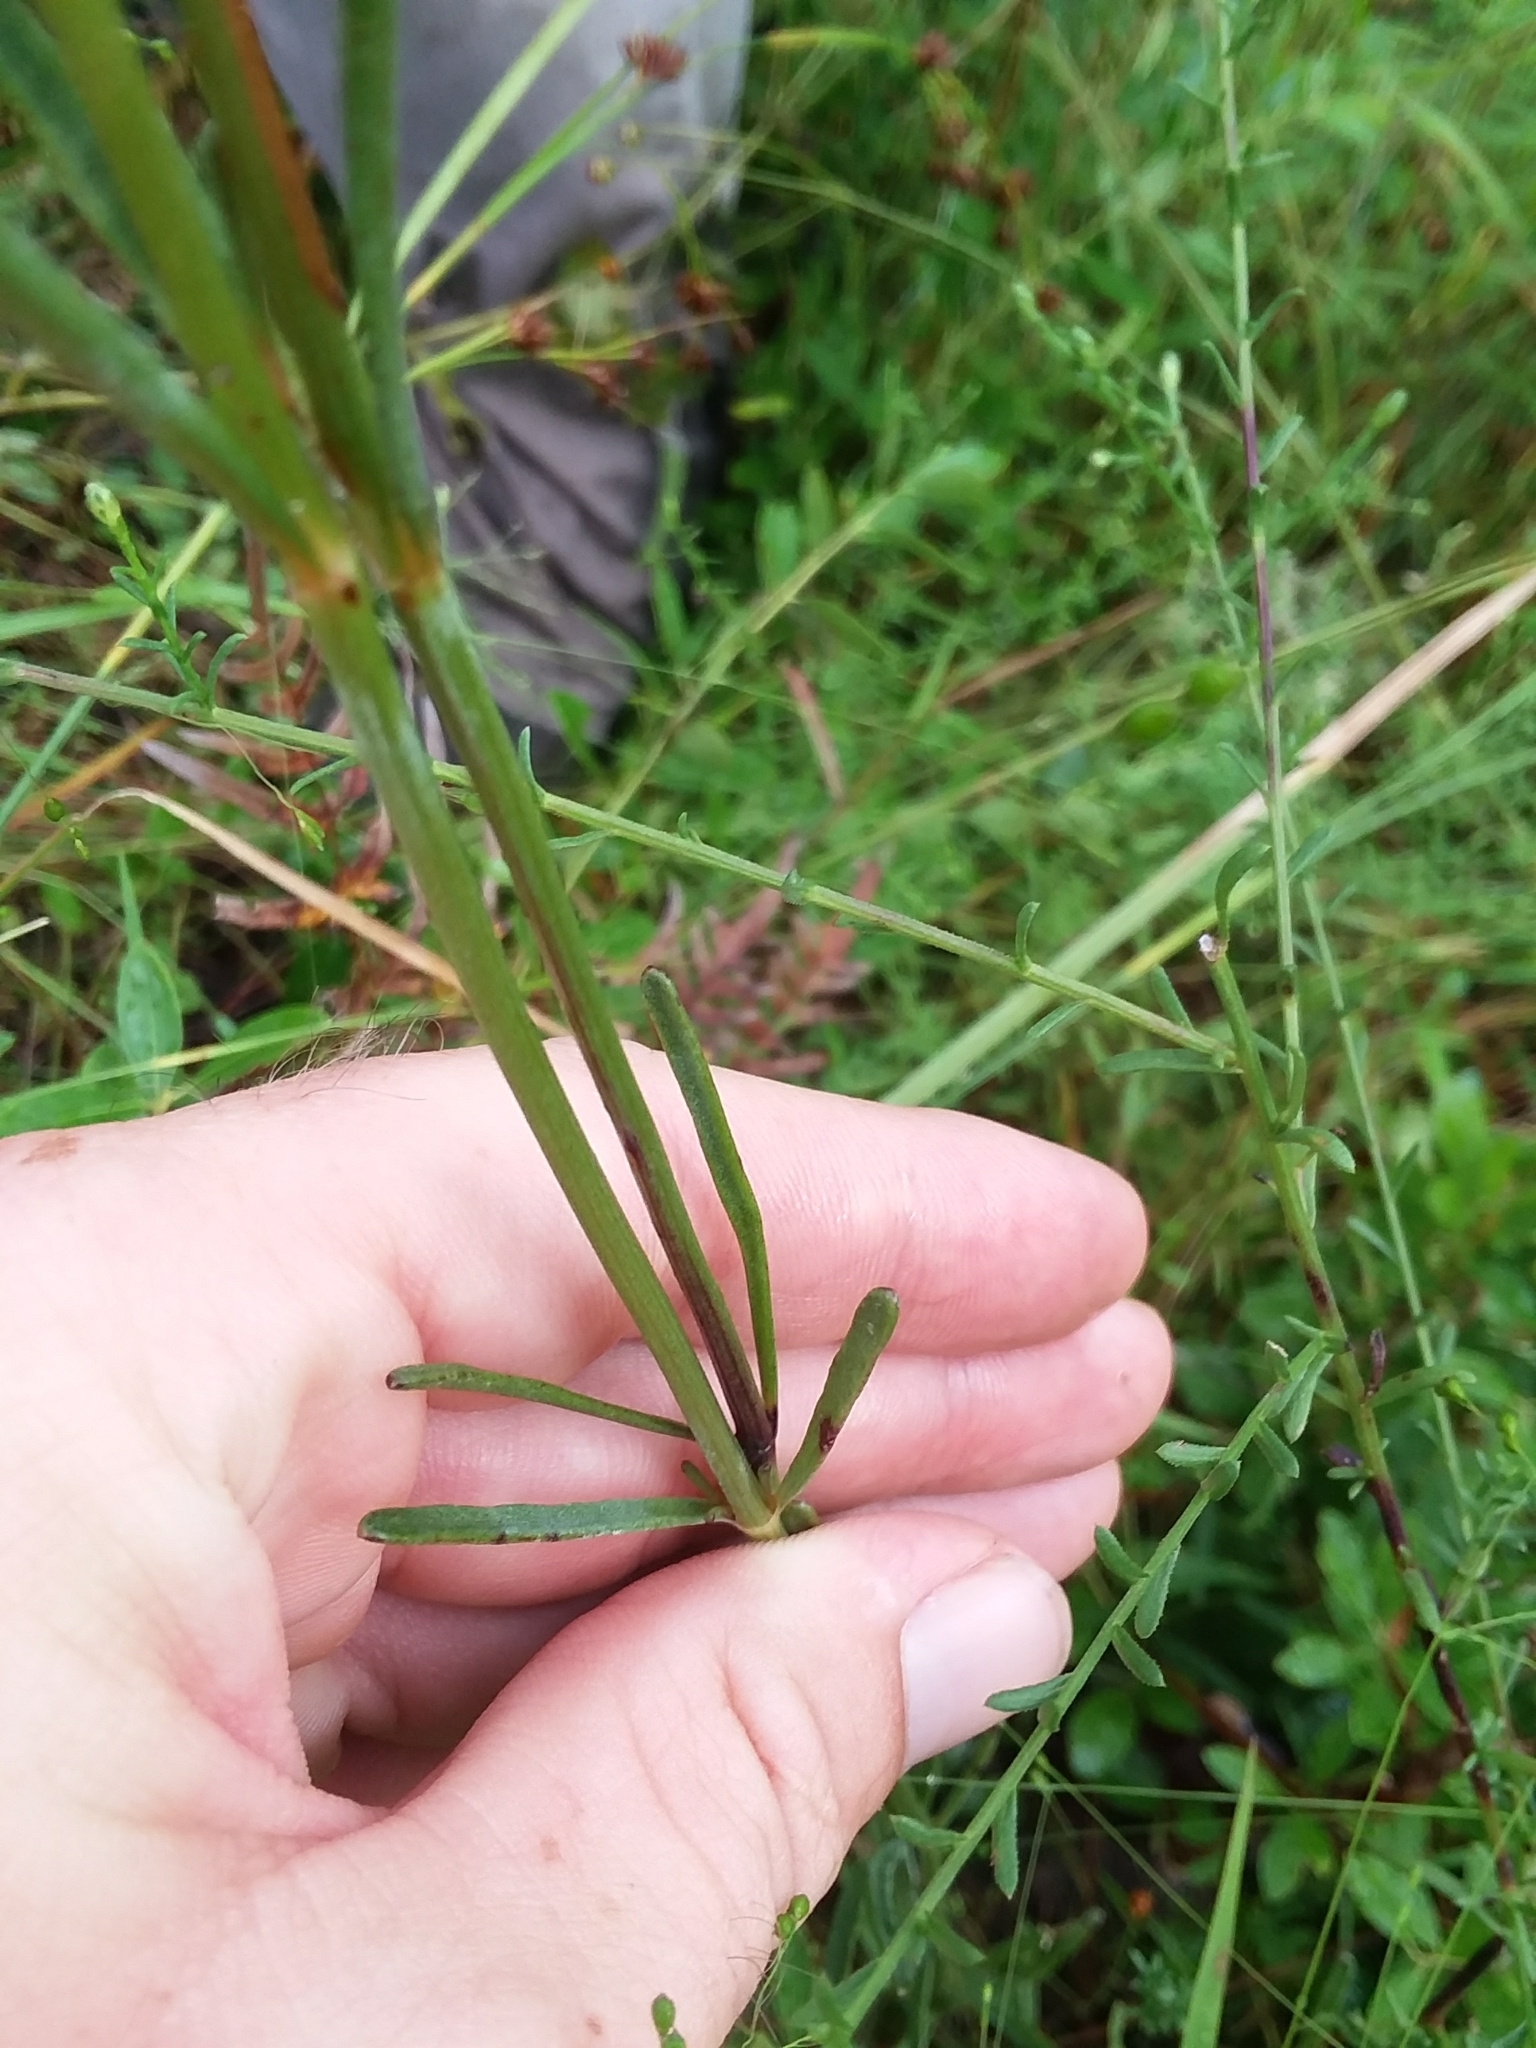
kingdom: Plantae
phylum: Tracheophyta
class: Magnoliopsida
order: Asterales
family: Asteraceae
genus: Coreopsis
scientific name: Coreopsis gladiata
